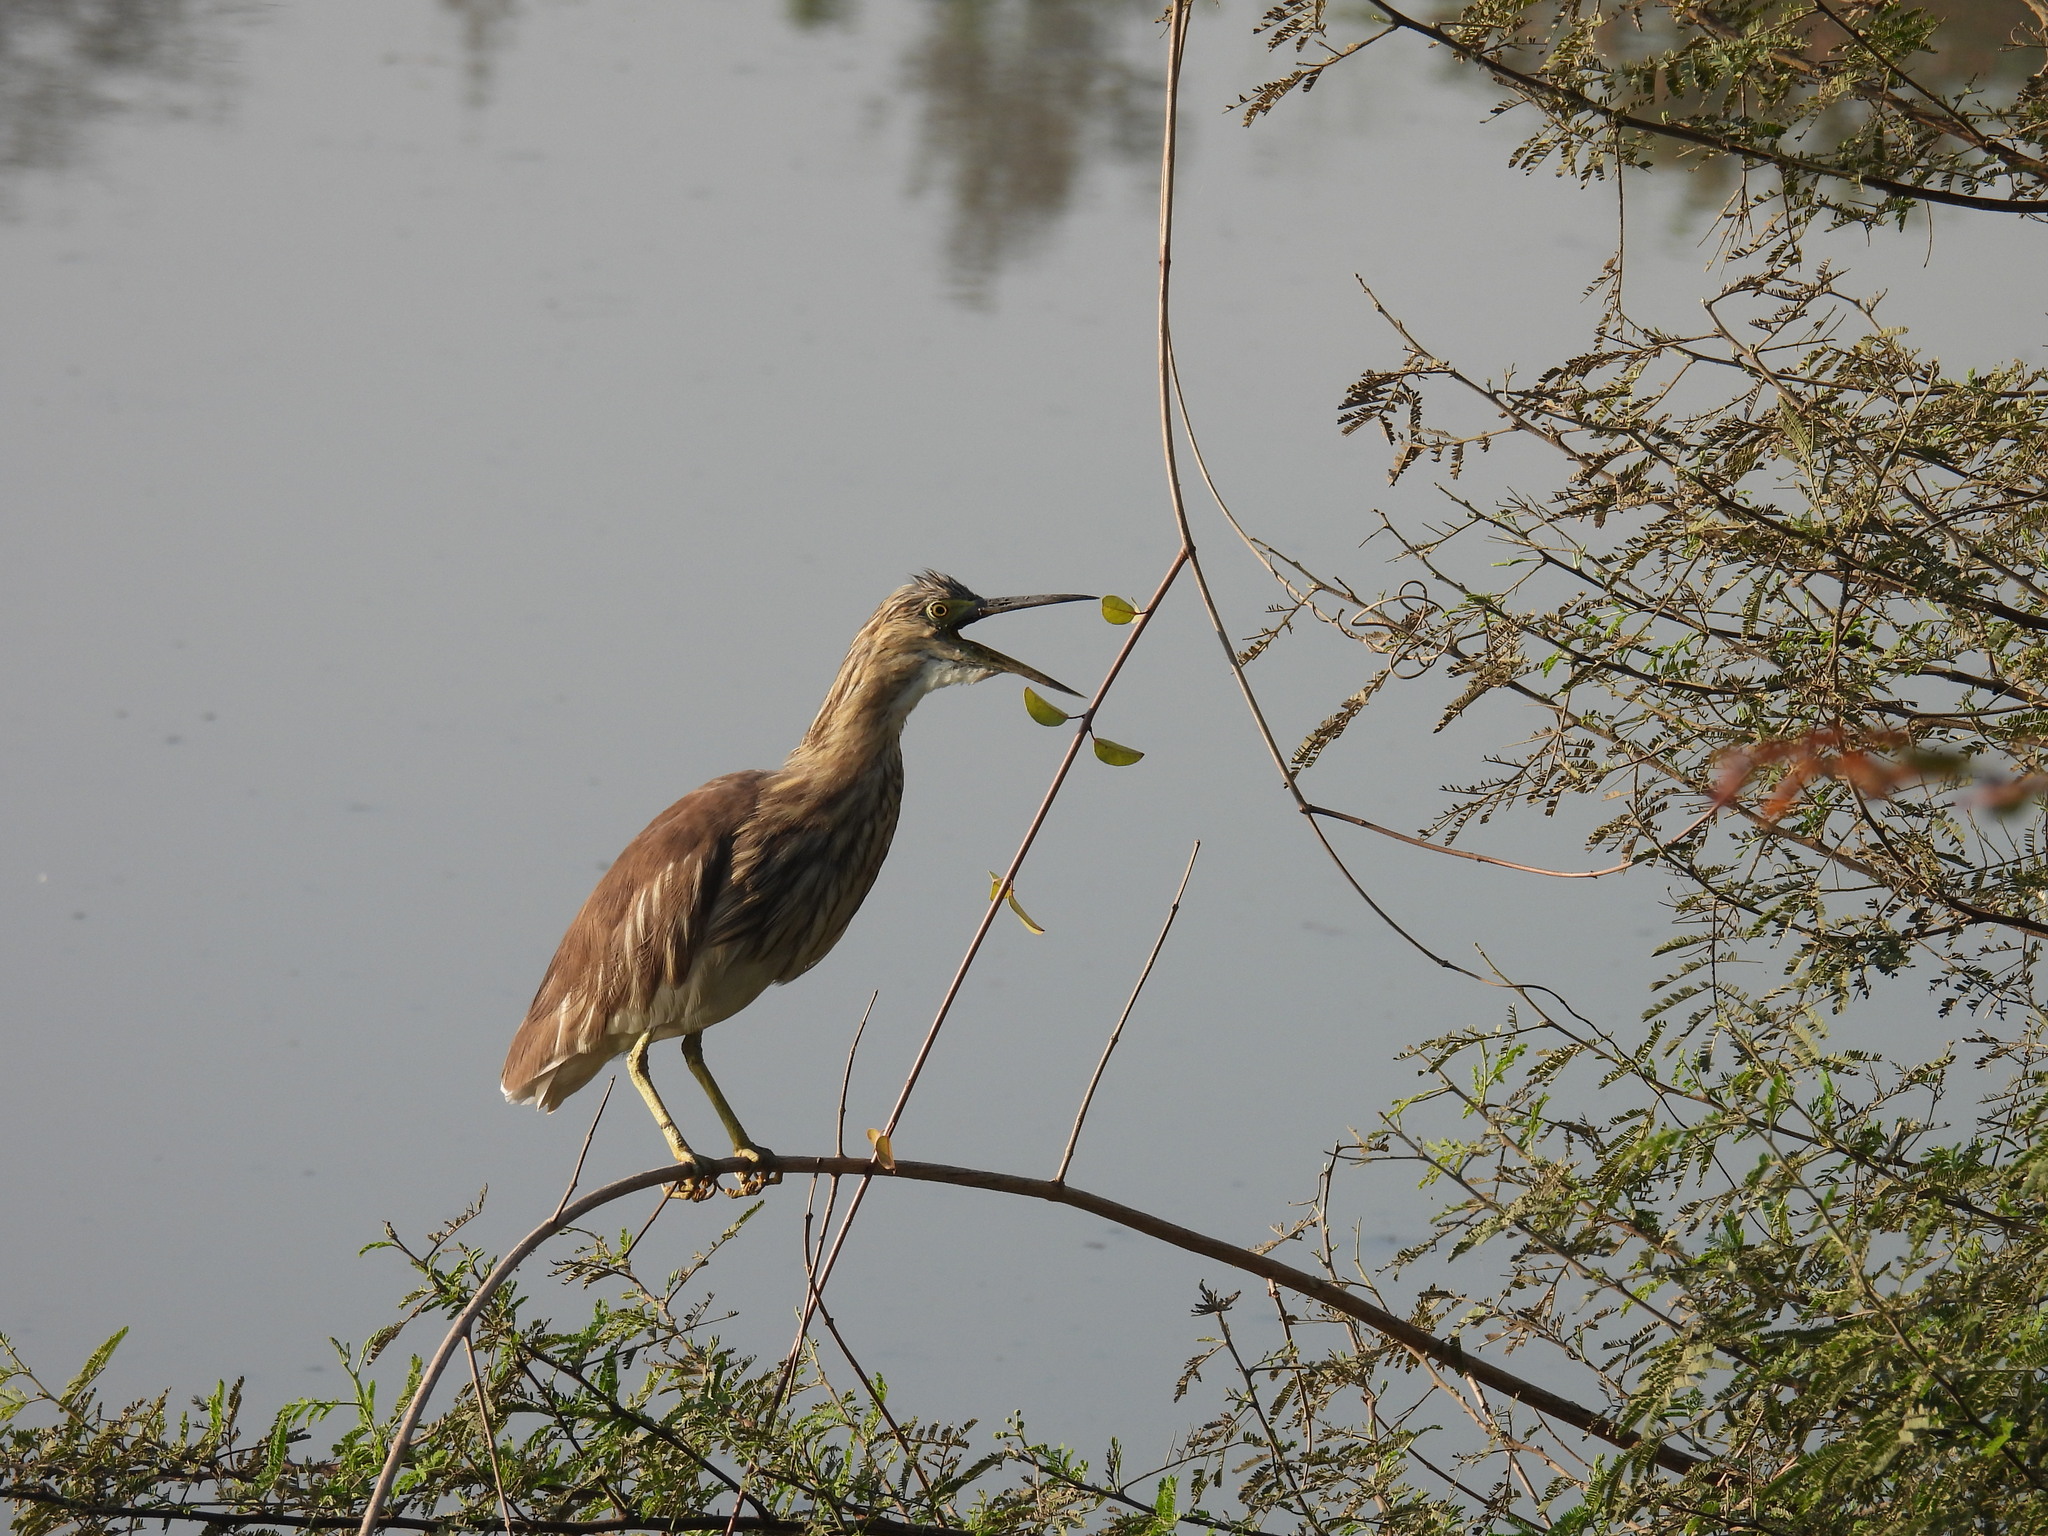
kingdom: Animalia
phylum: Chordata
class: Aves
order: Pelecaniformes
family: Ardeidae
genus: Ardeola
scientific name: Ardeola grayii
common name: Indian pond heron
